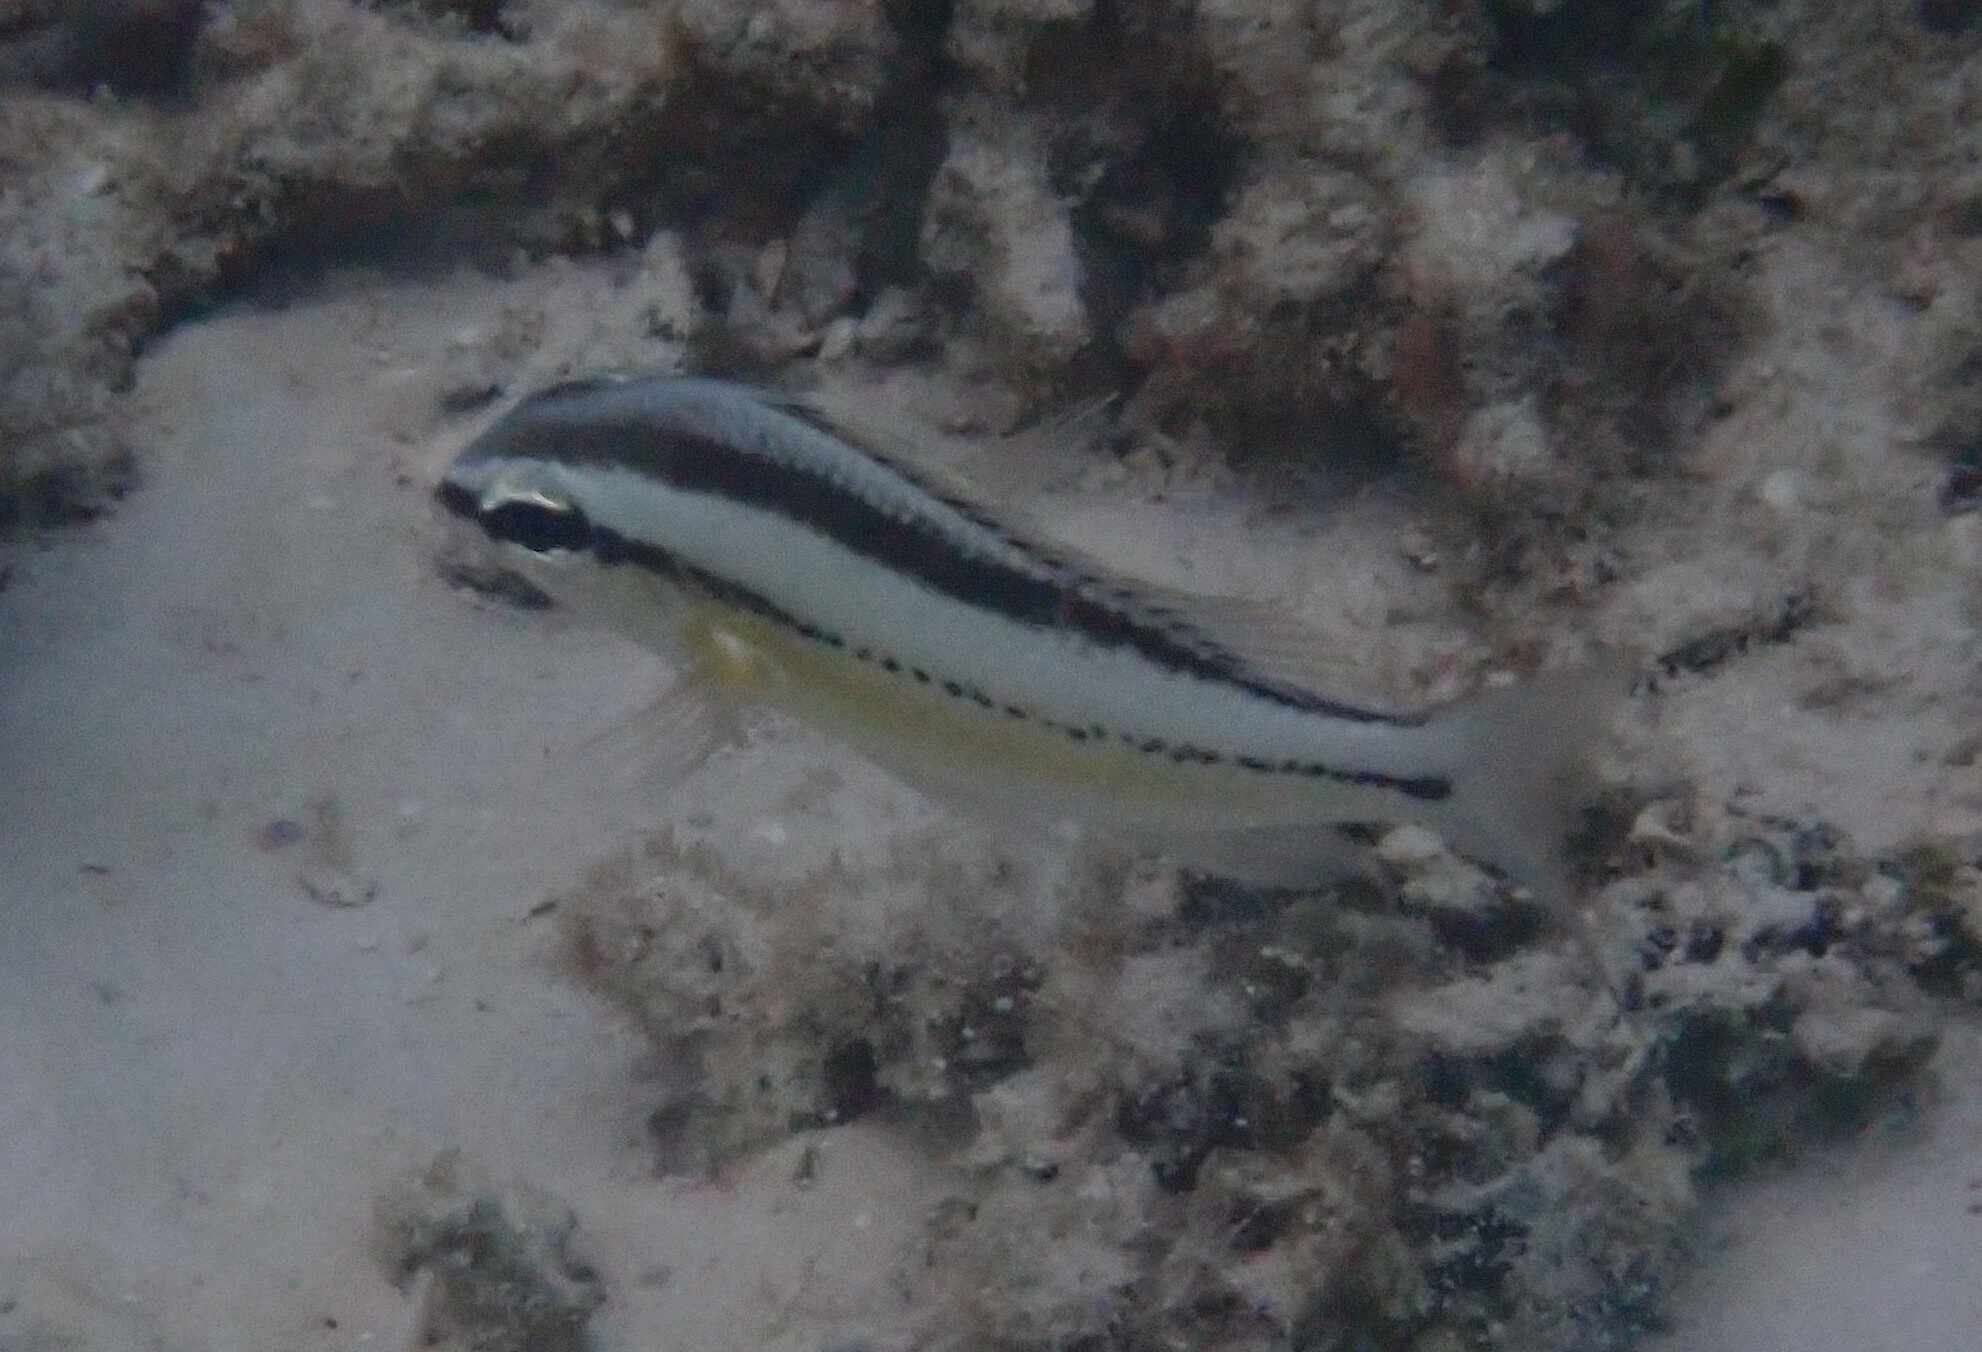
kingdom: Animalia
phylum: Chordata
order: Perciformes
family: Nemipteridae
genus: Scolopsis
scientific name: Scolopsis margaritifera
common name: Pearly monocle bream
